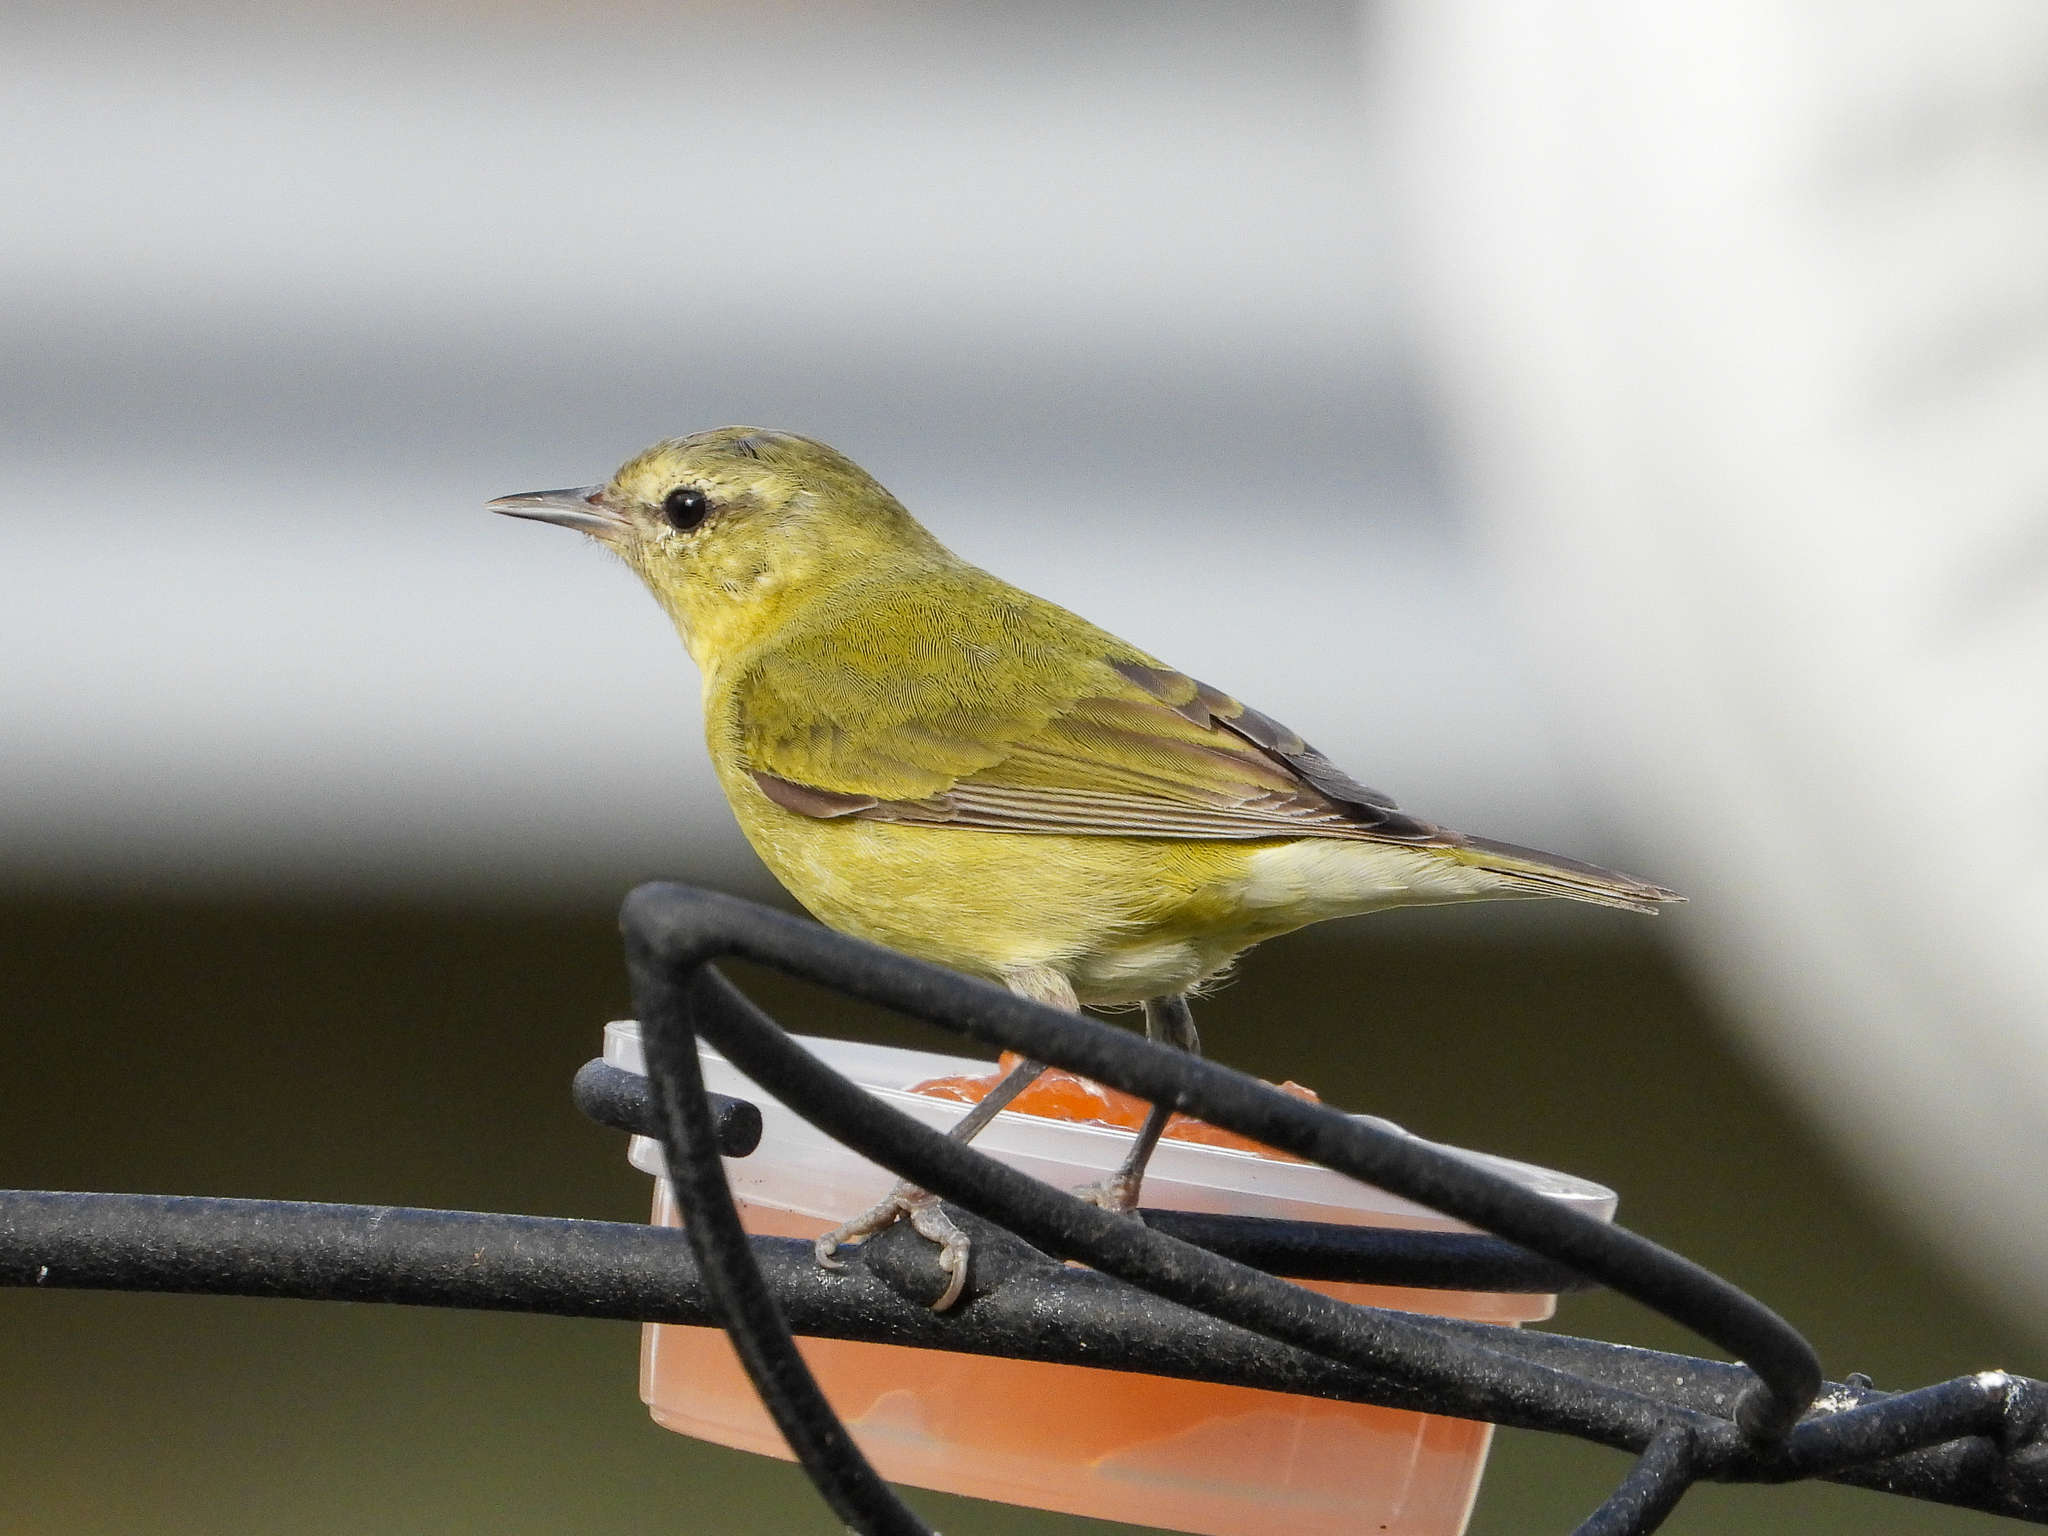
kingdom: Animalia
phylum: Chordata
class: Aves
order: Passeriformes
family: Parulidae
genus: Leiothlypis
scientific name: Leiothlypis peregrina
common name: Tennessee warbler
